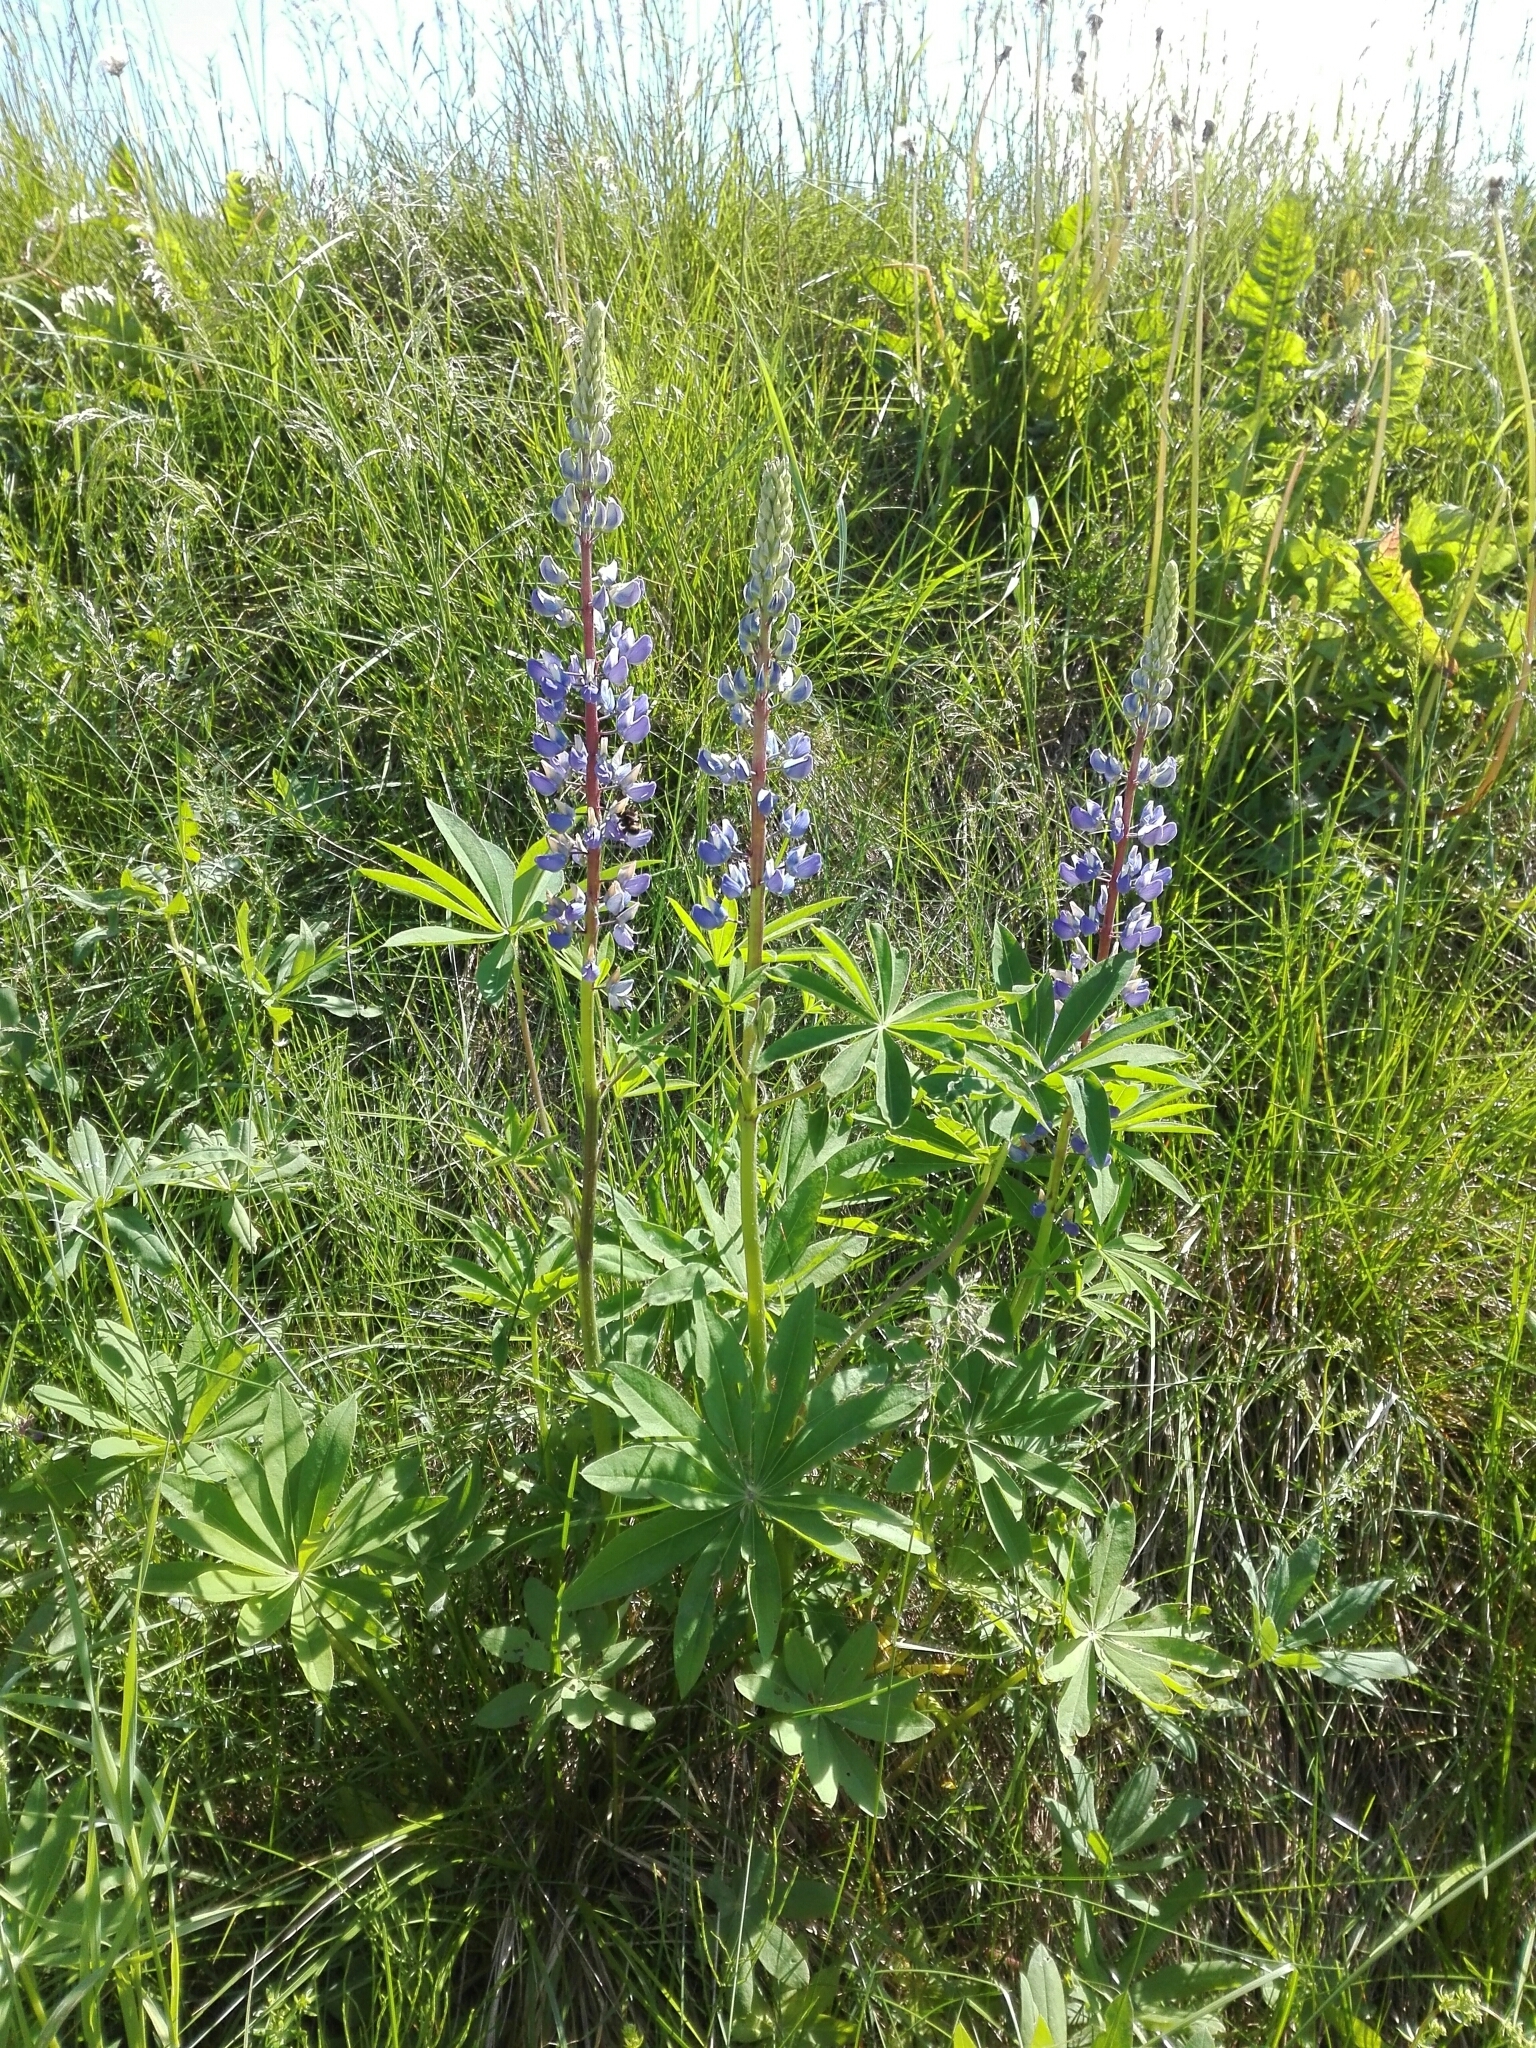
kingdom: Plantae
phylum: Tracheophyta
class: Magnoliopsida
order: Fabales
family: Fabaceae
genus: Lupinus
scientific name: Lupinus polyphyllus
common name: Garden lupin
